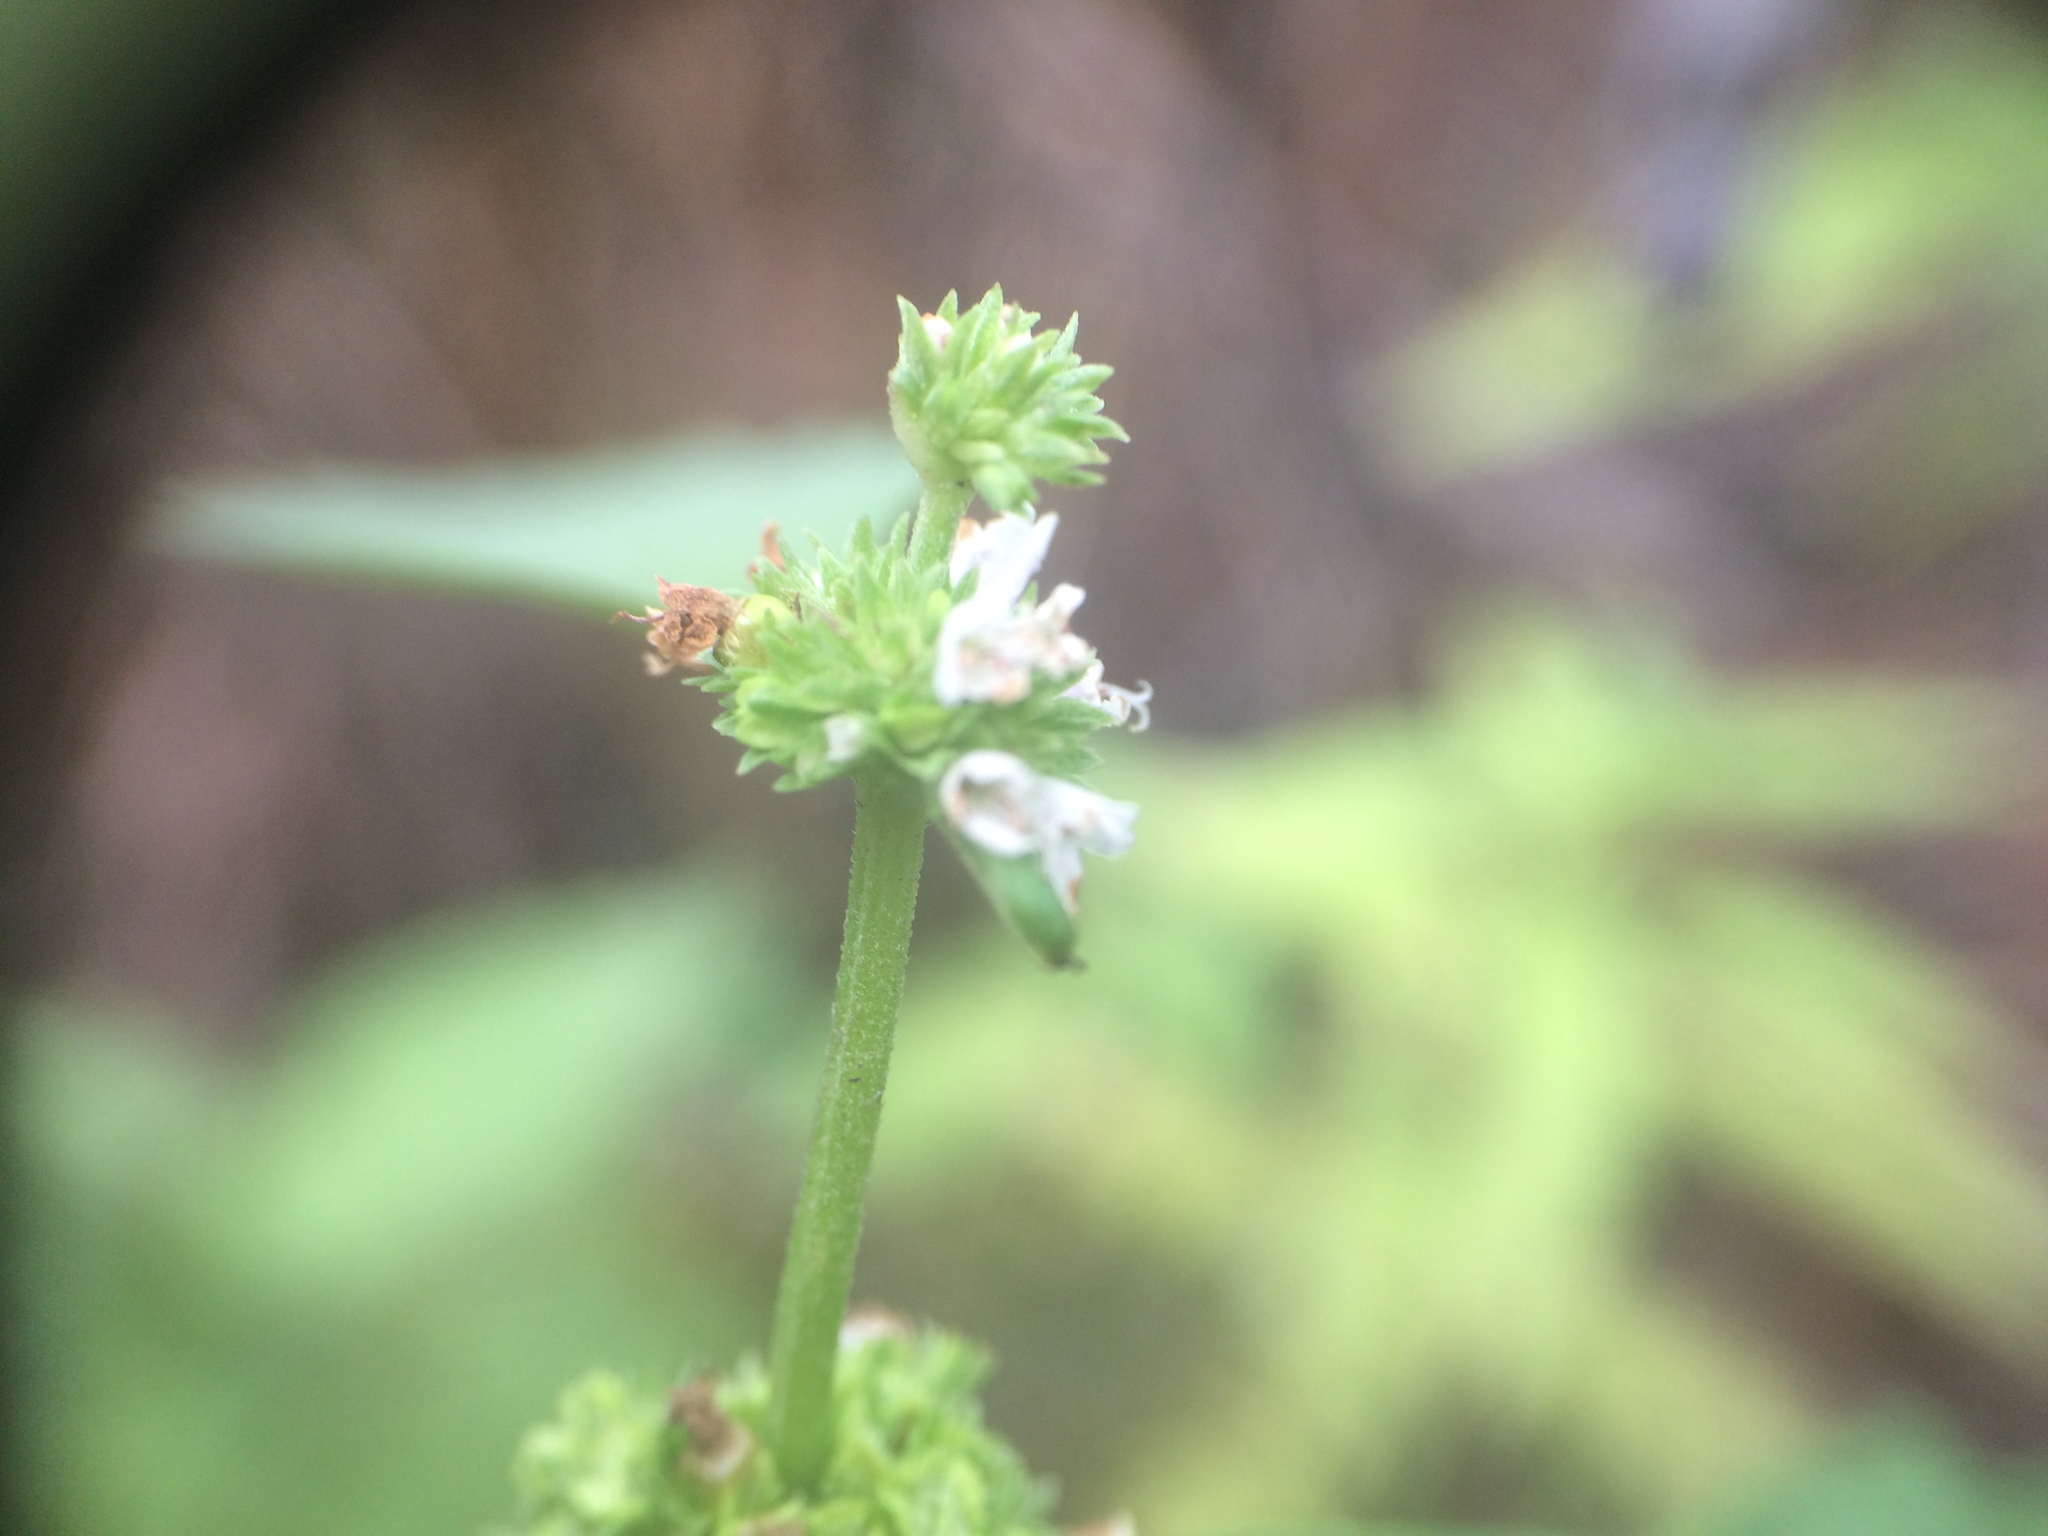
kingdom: Plantae
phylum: Tracheophyta
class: Magnoliopsida
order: Lamiales
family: Lamiaceae
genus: Lycopus
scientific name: Lycopus uniflorus
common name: Northern bugleweed
